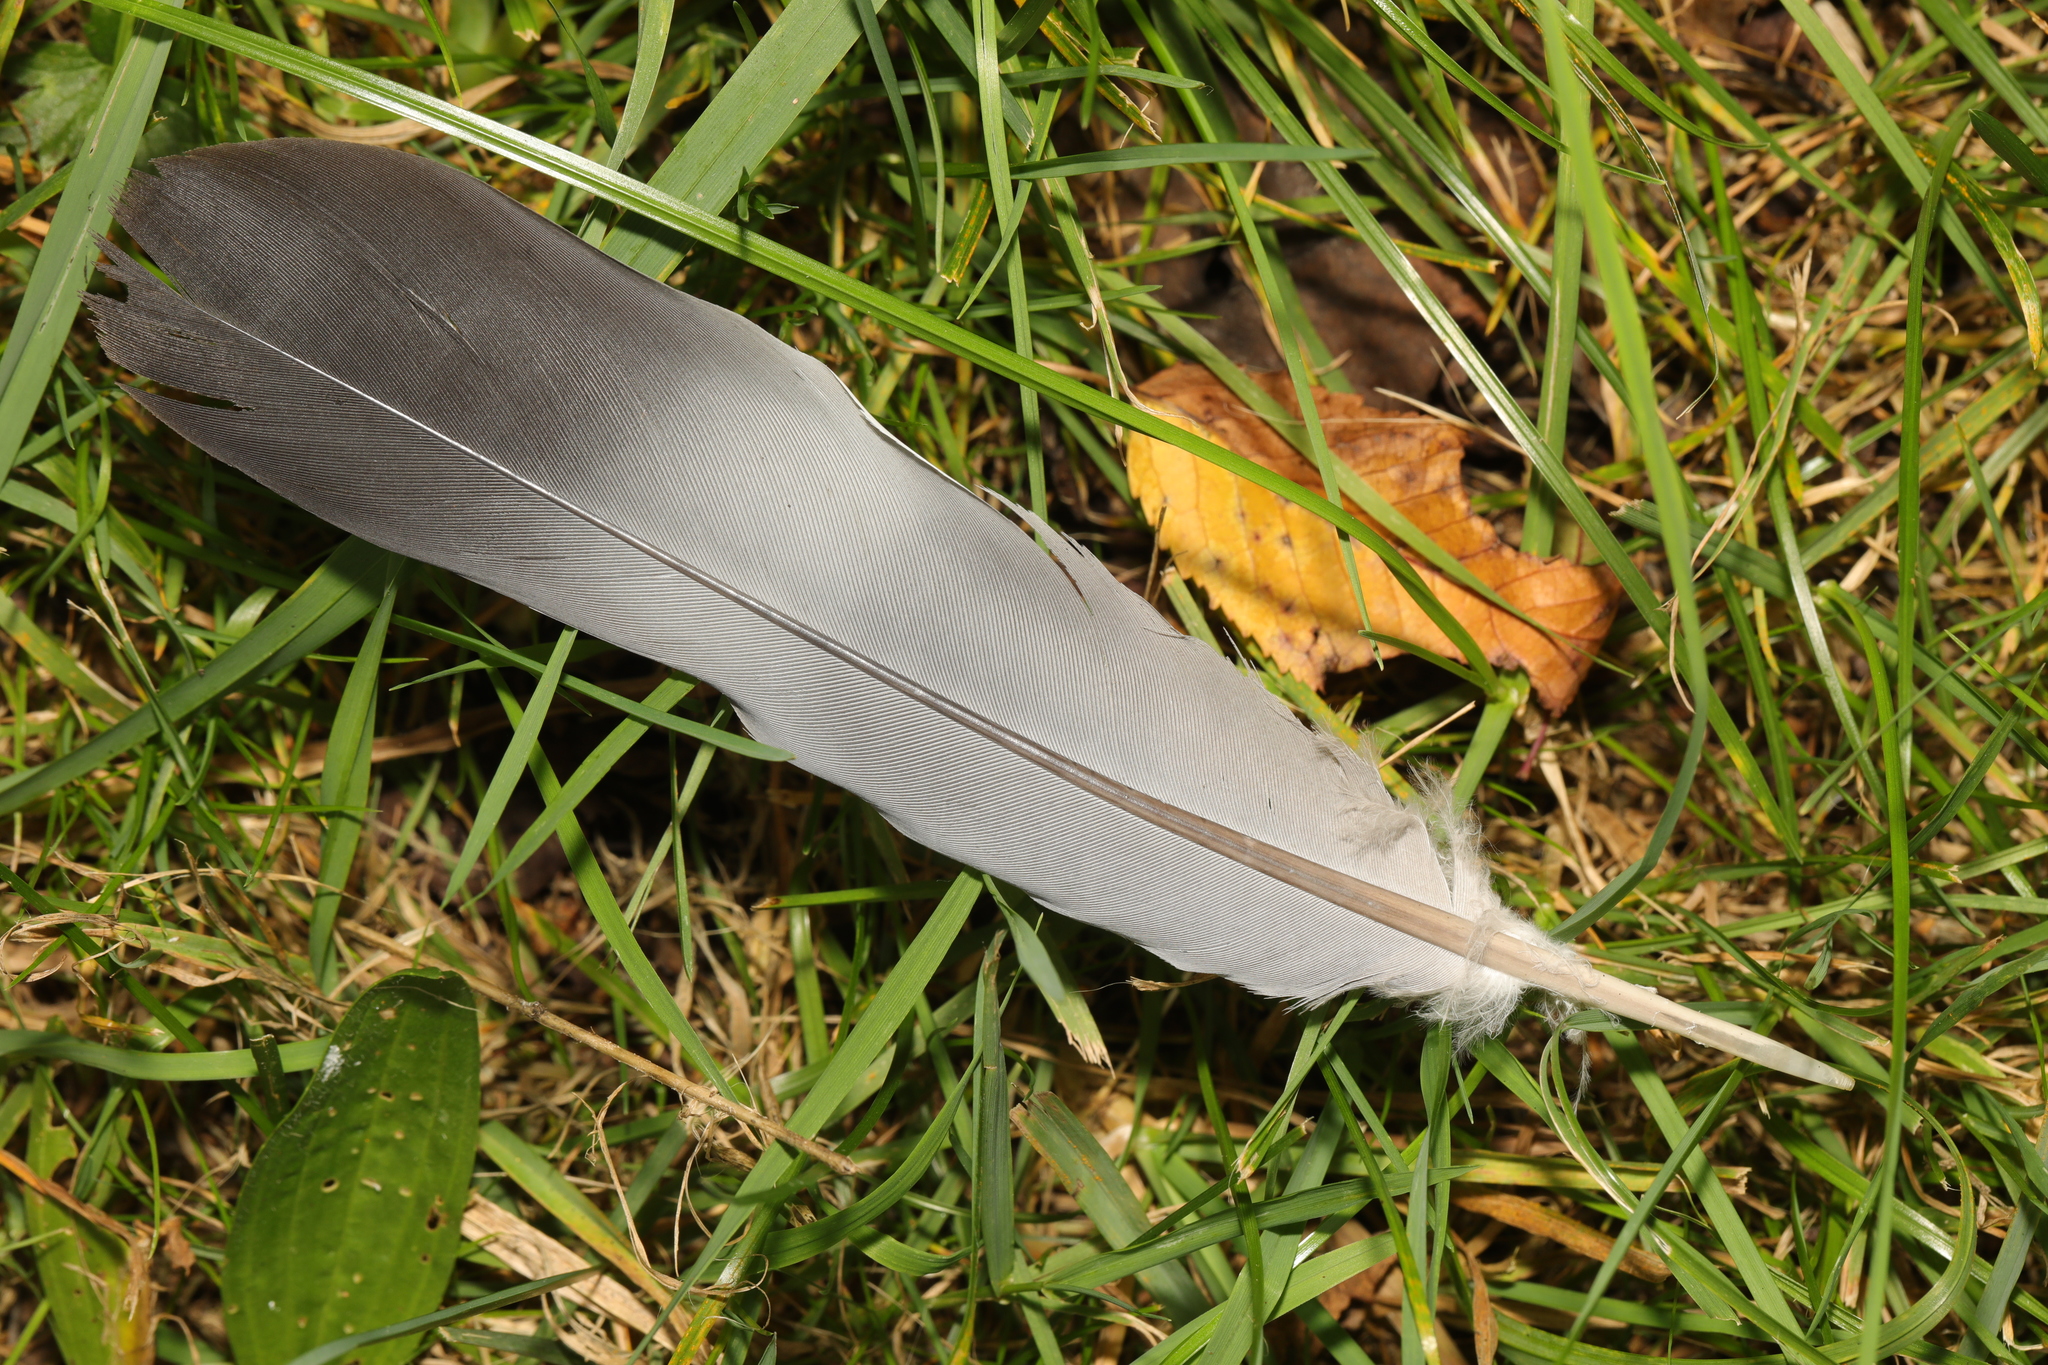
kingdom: Animalia
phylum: Chordata
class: Aves
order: Columbiformes
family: Columbidae
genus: Columba
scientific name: Columba palumbus
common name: Common wood pigeon
